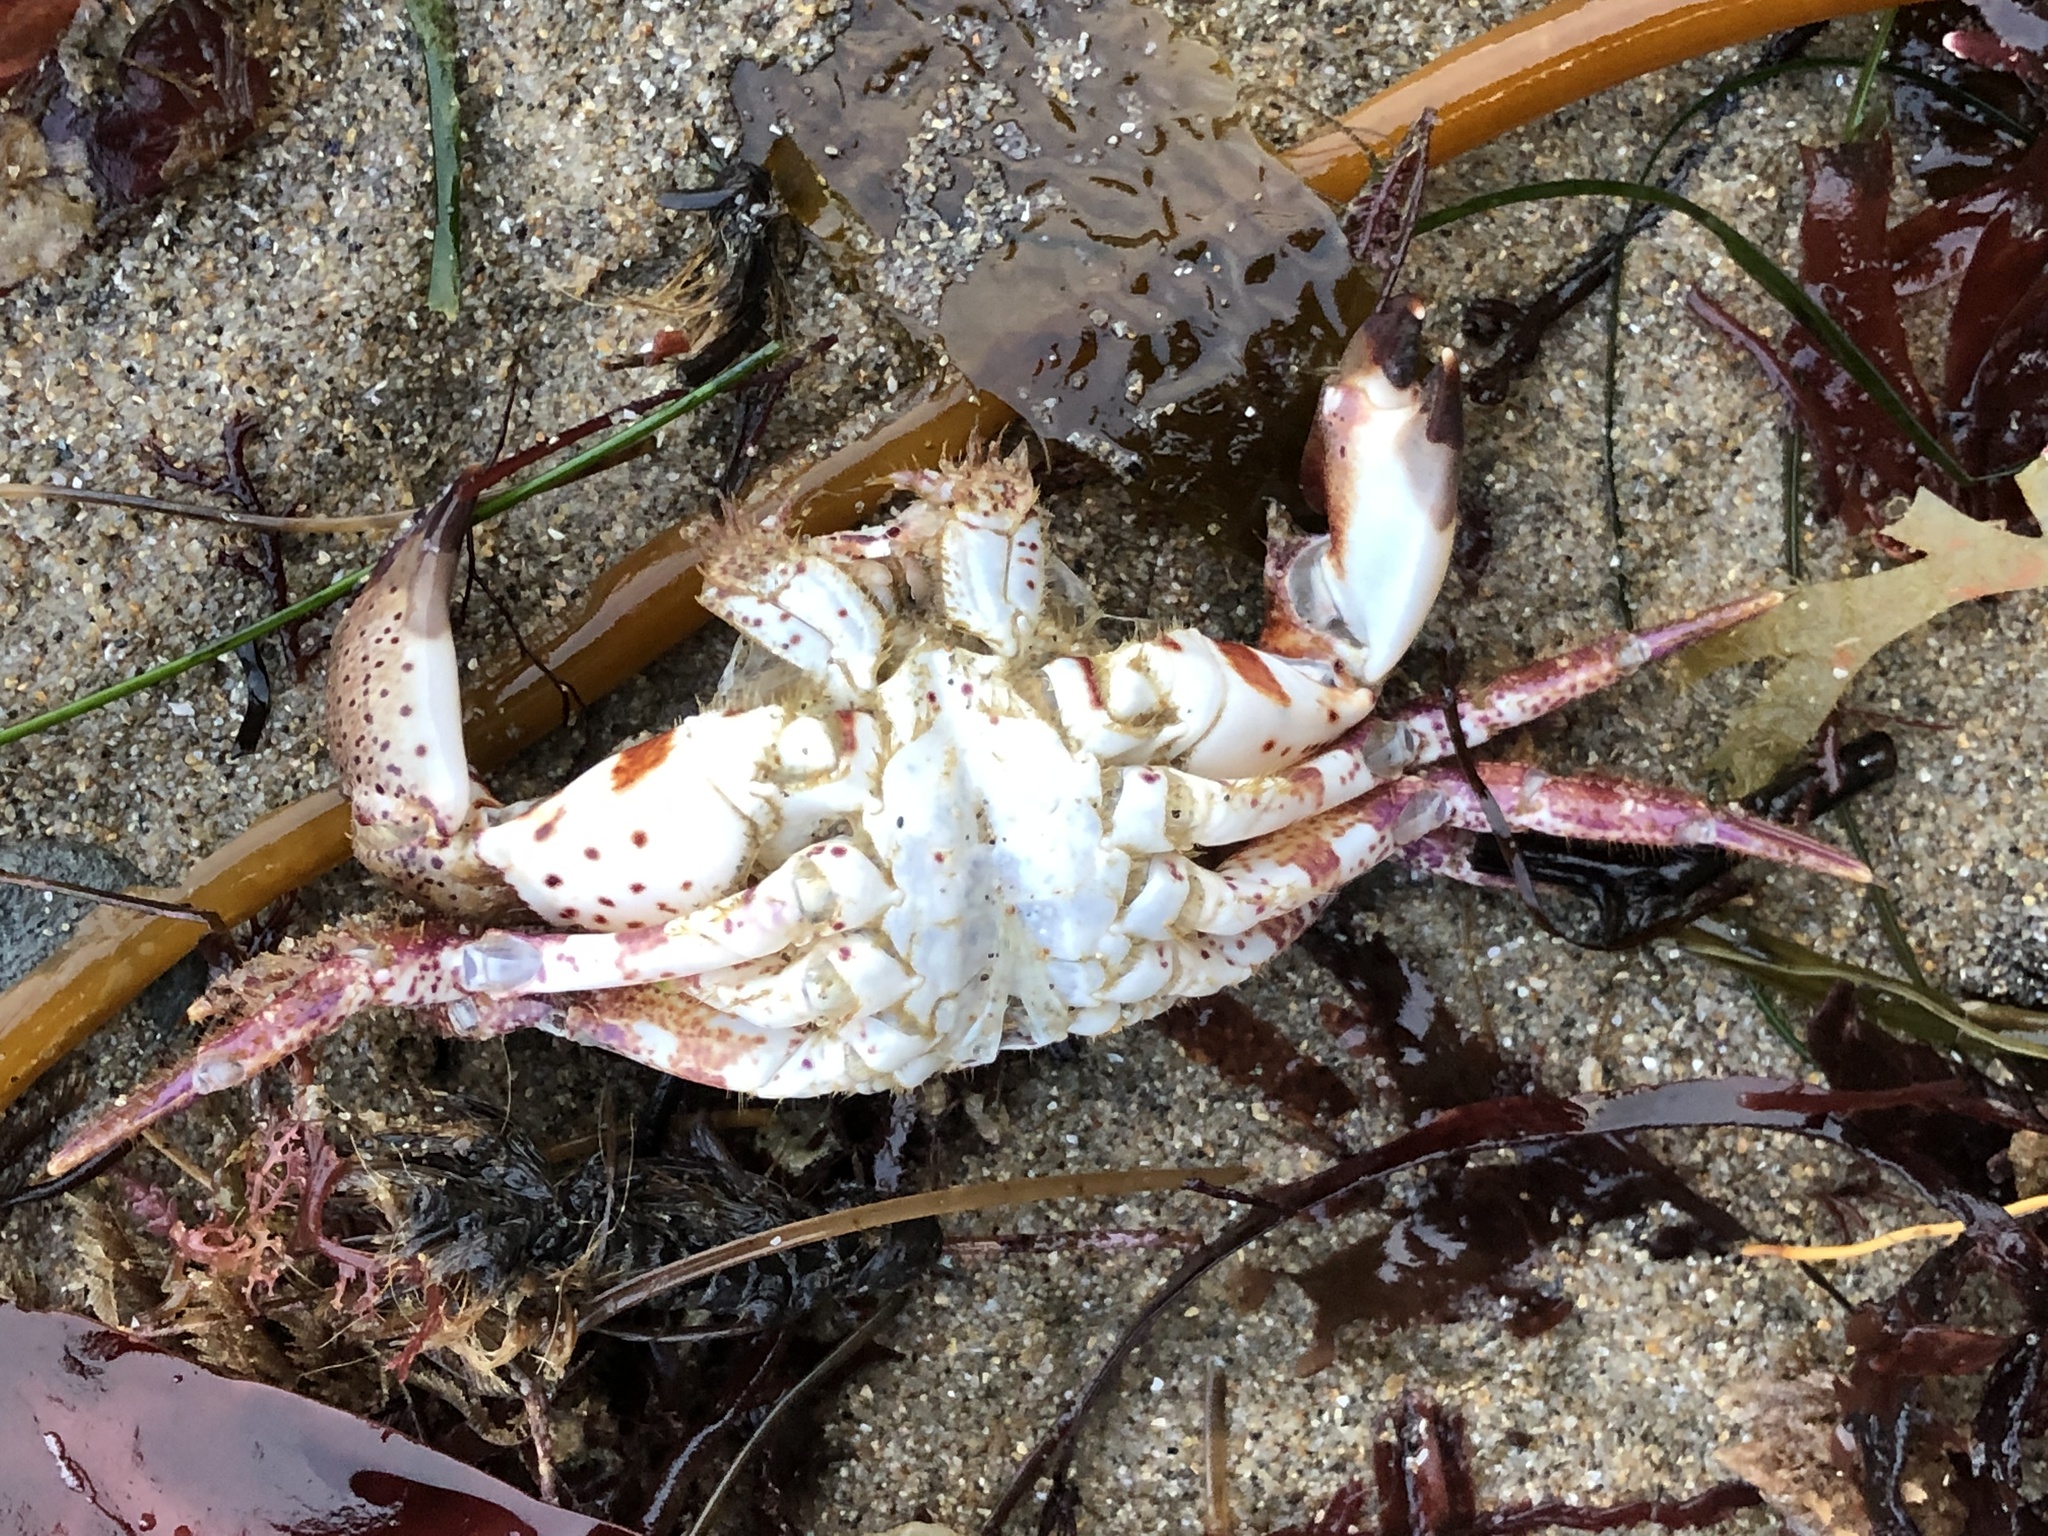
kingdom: Animalia
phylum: Arthropoda
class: Malacostraca
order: Decapoda
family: Cancridae
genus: Romaleon
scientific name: Romaleon antennarium
